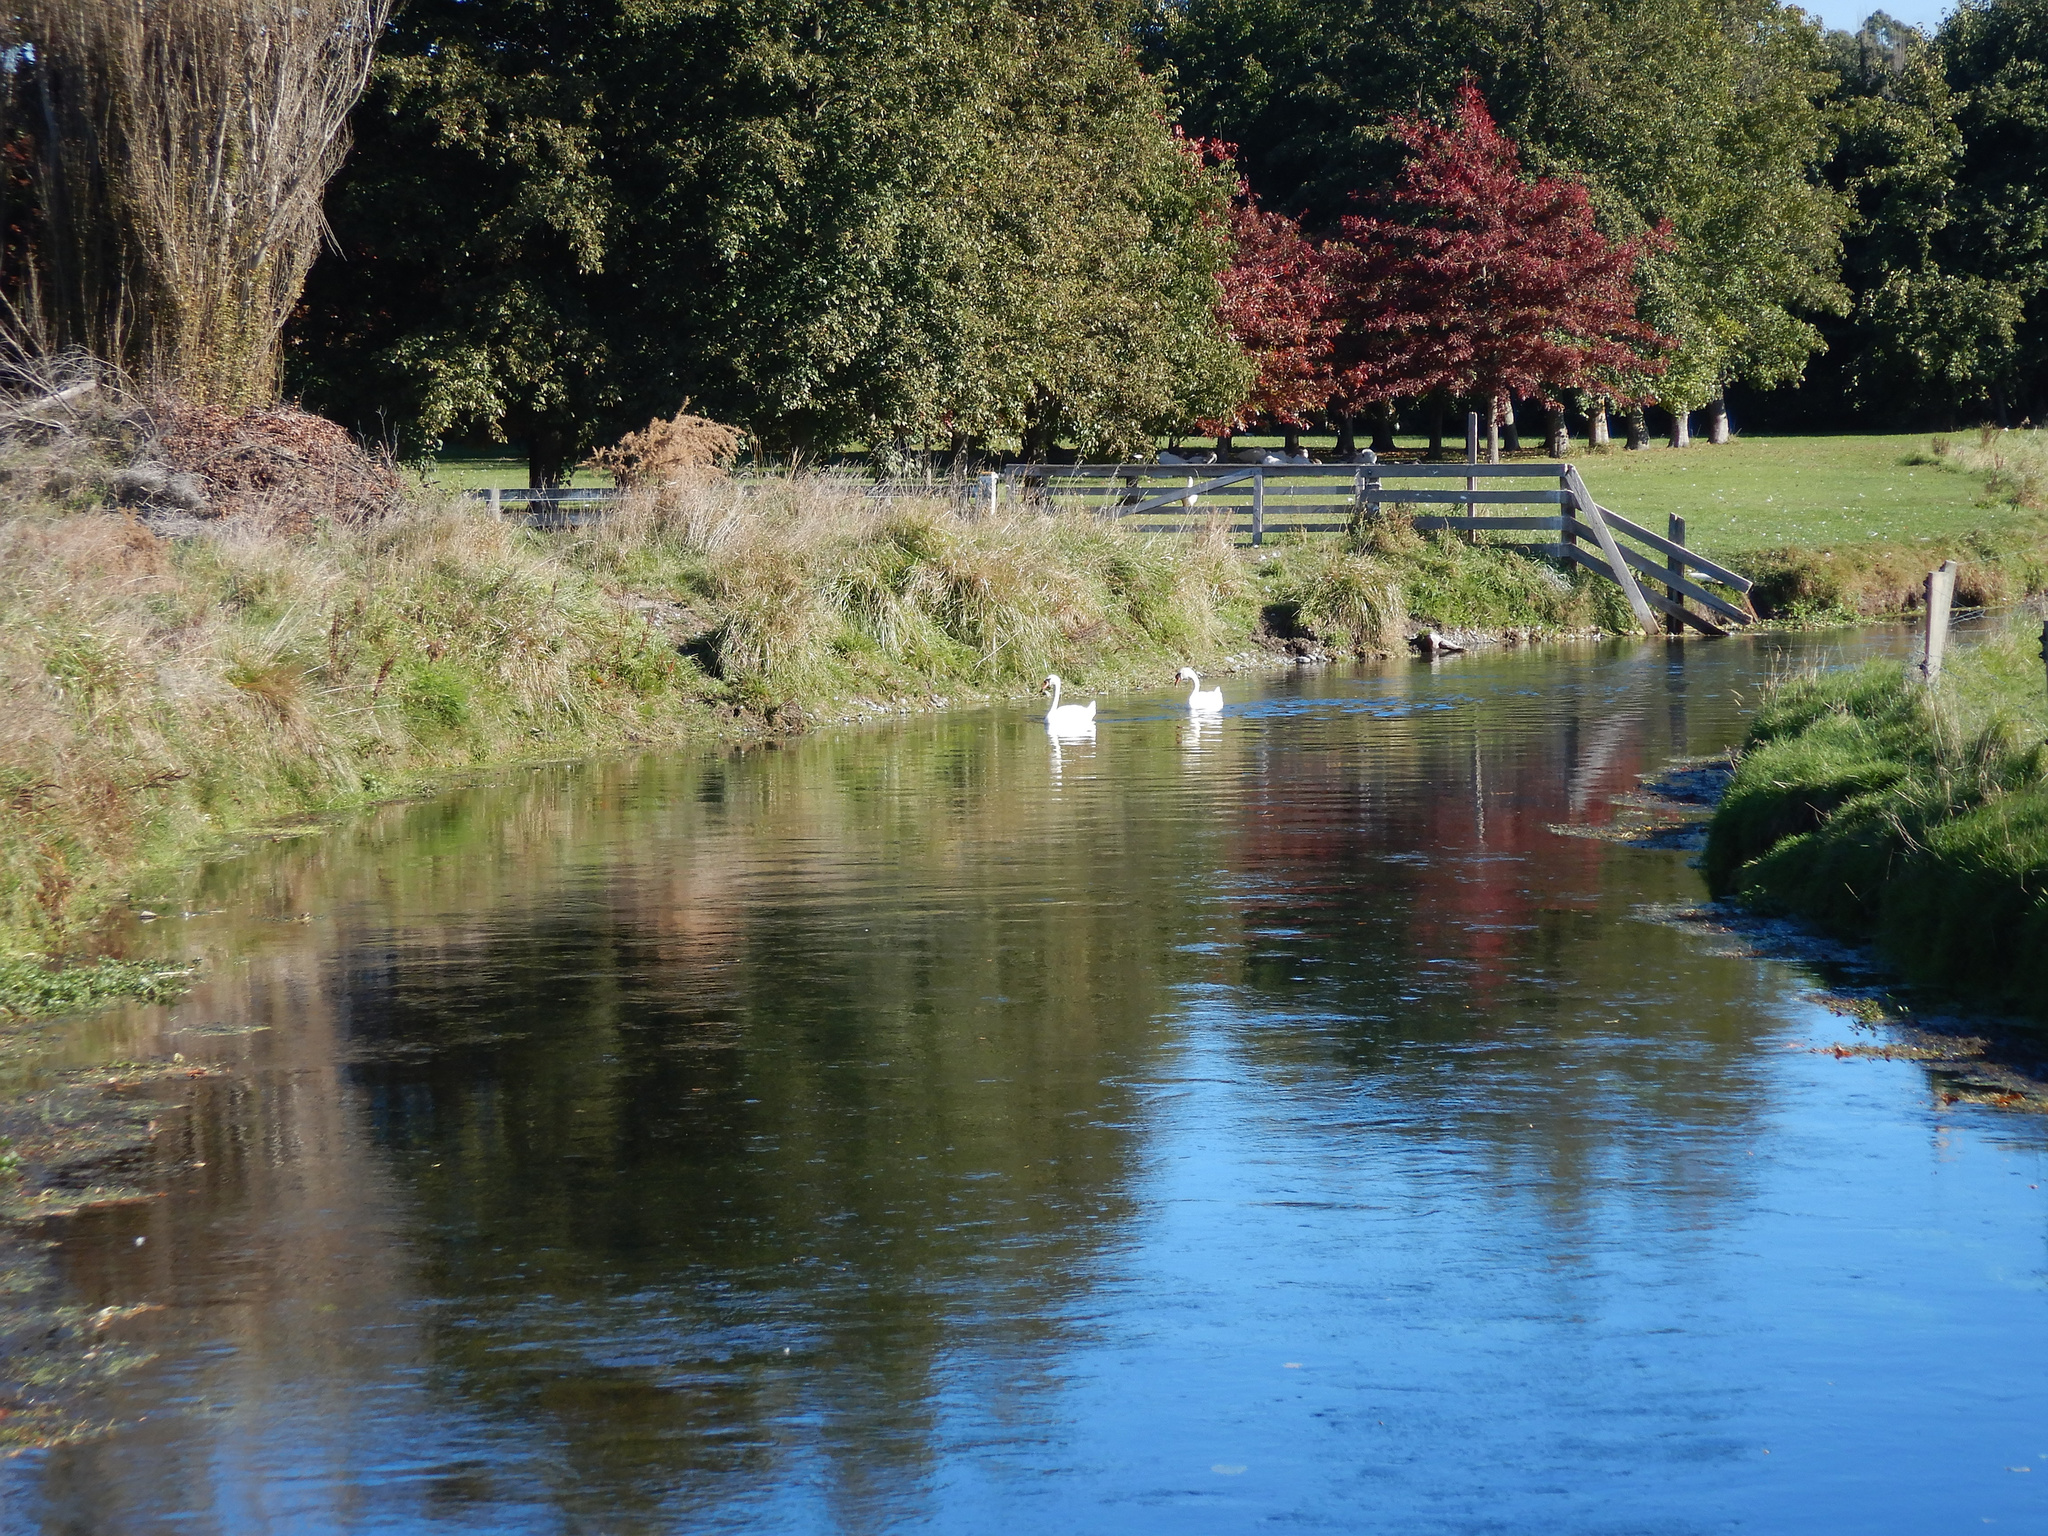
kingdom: Animalia
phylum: Chordata
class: Aves
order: Anseriformes
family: Anatidae
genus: Cygnus
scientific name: Cygnus olor
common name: Mute swan
